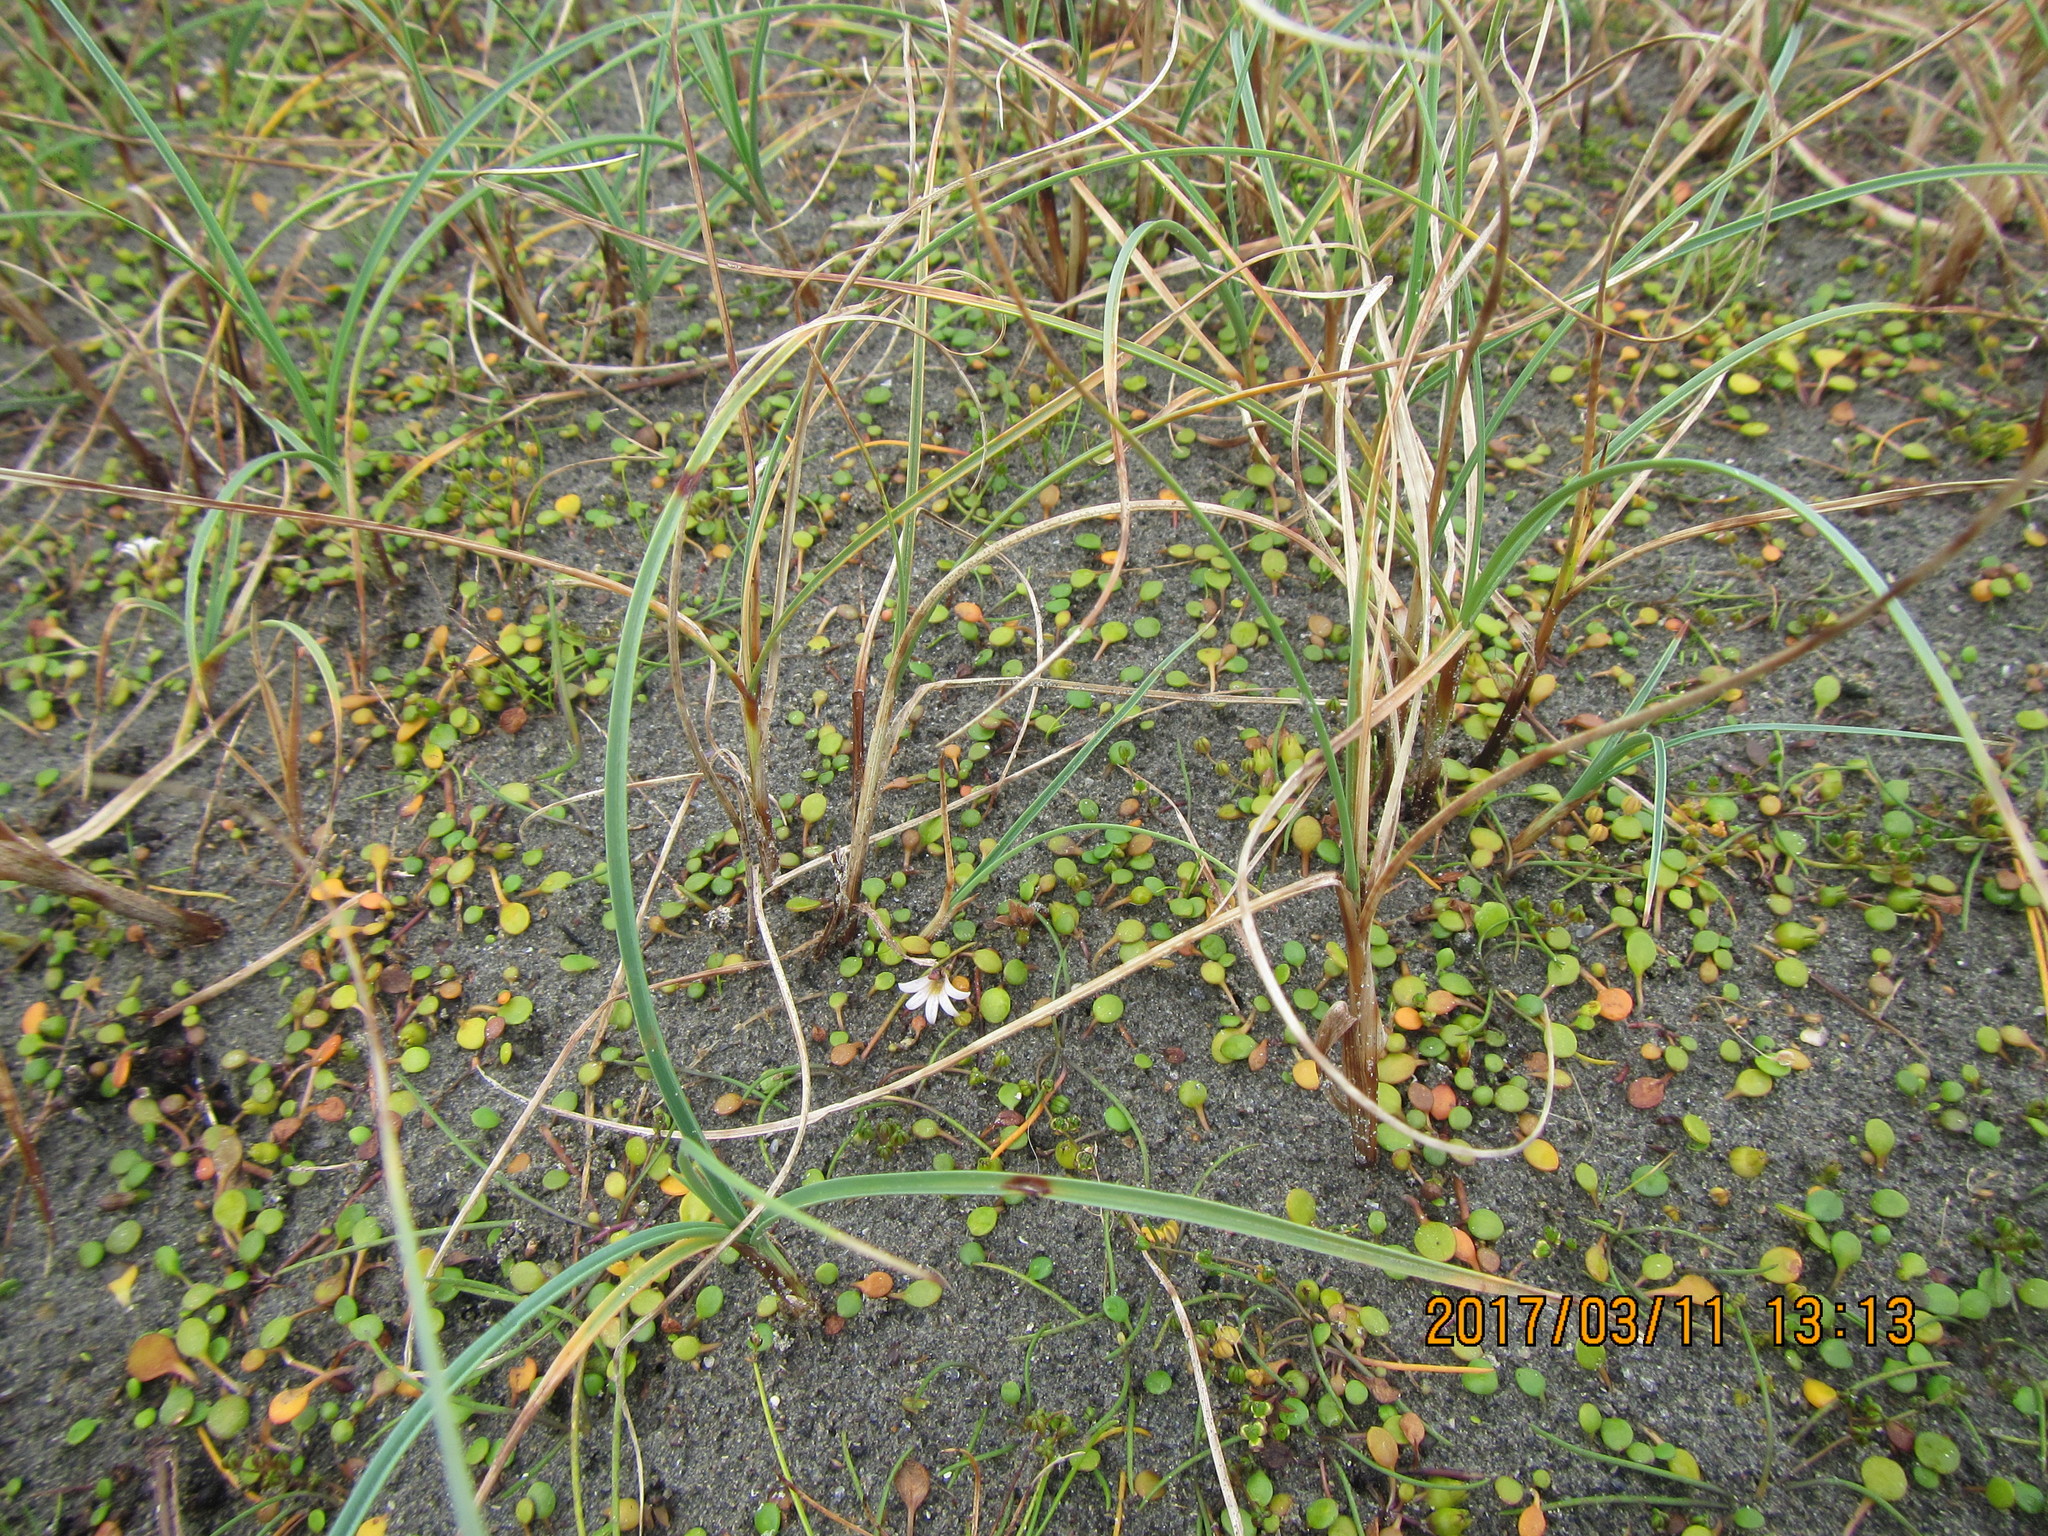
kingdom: Plantae
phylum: Tracheophyta
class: Magnoliopsida
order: Asterales
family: Goodeniaceae
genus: Goodenia
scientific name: Goodenia heenanii
